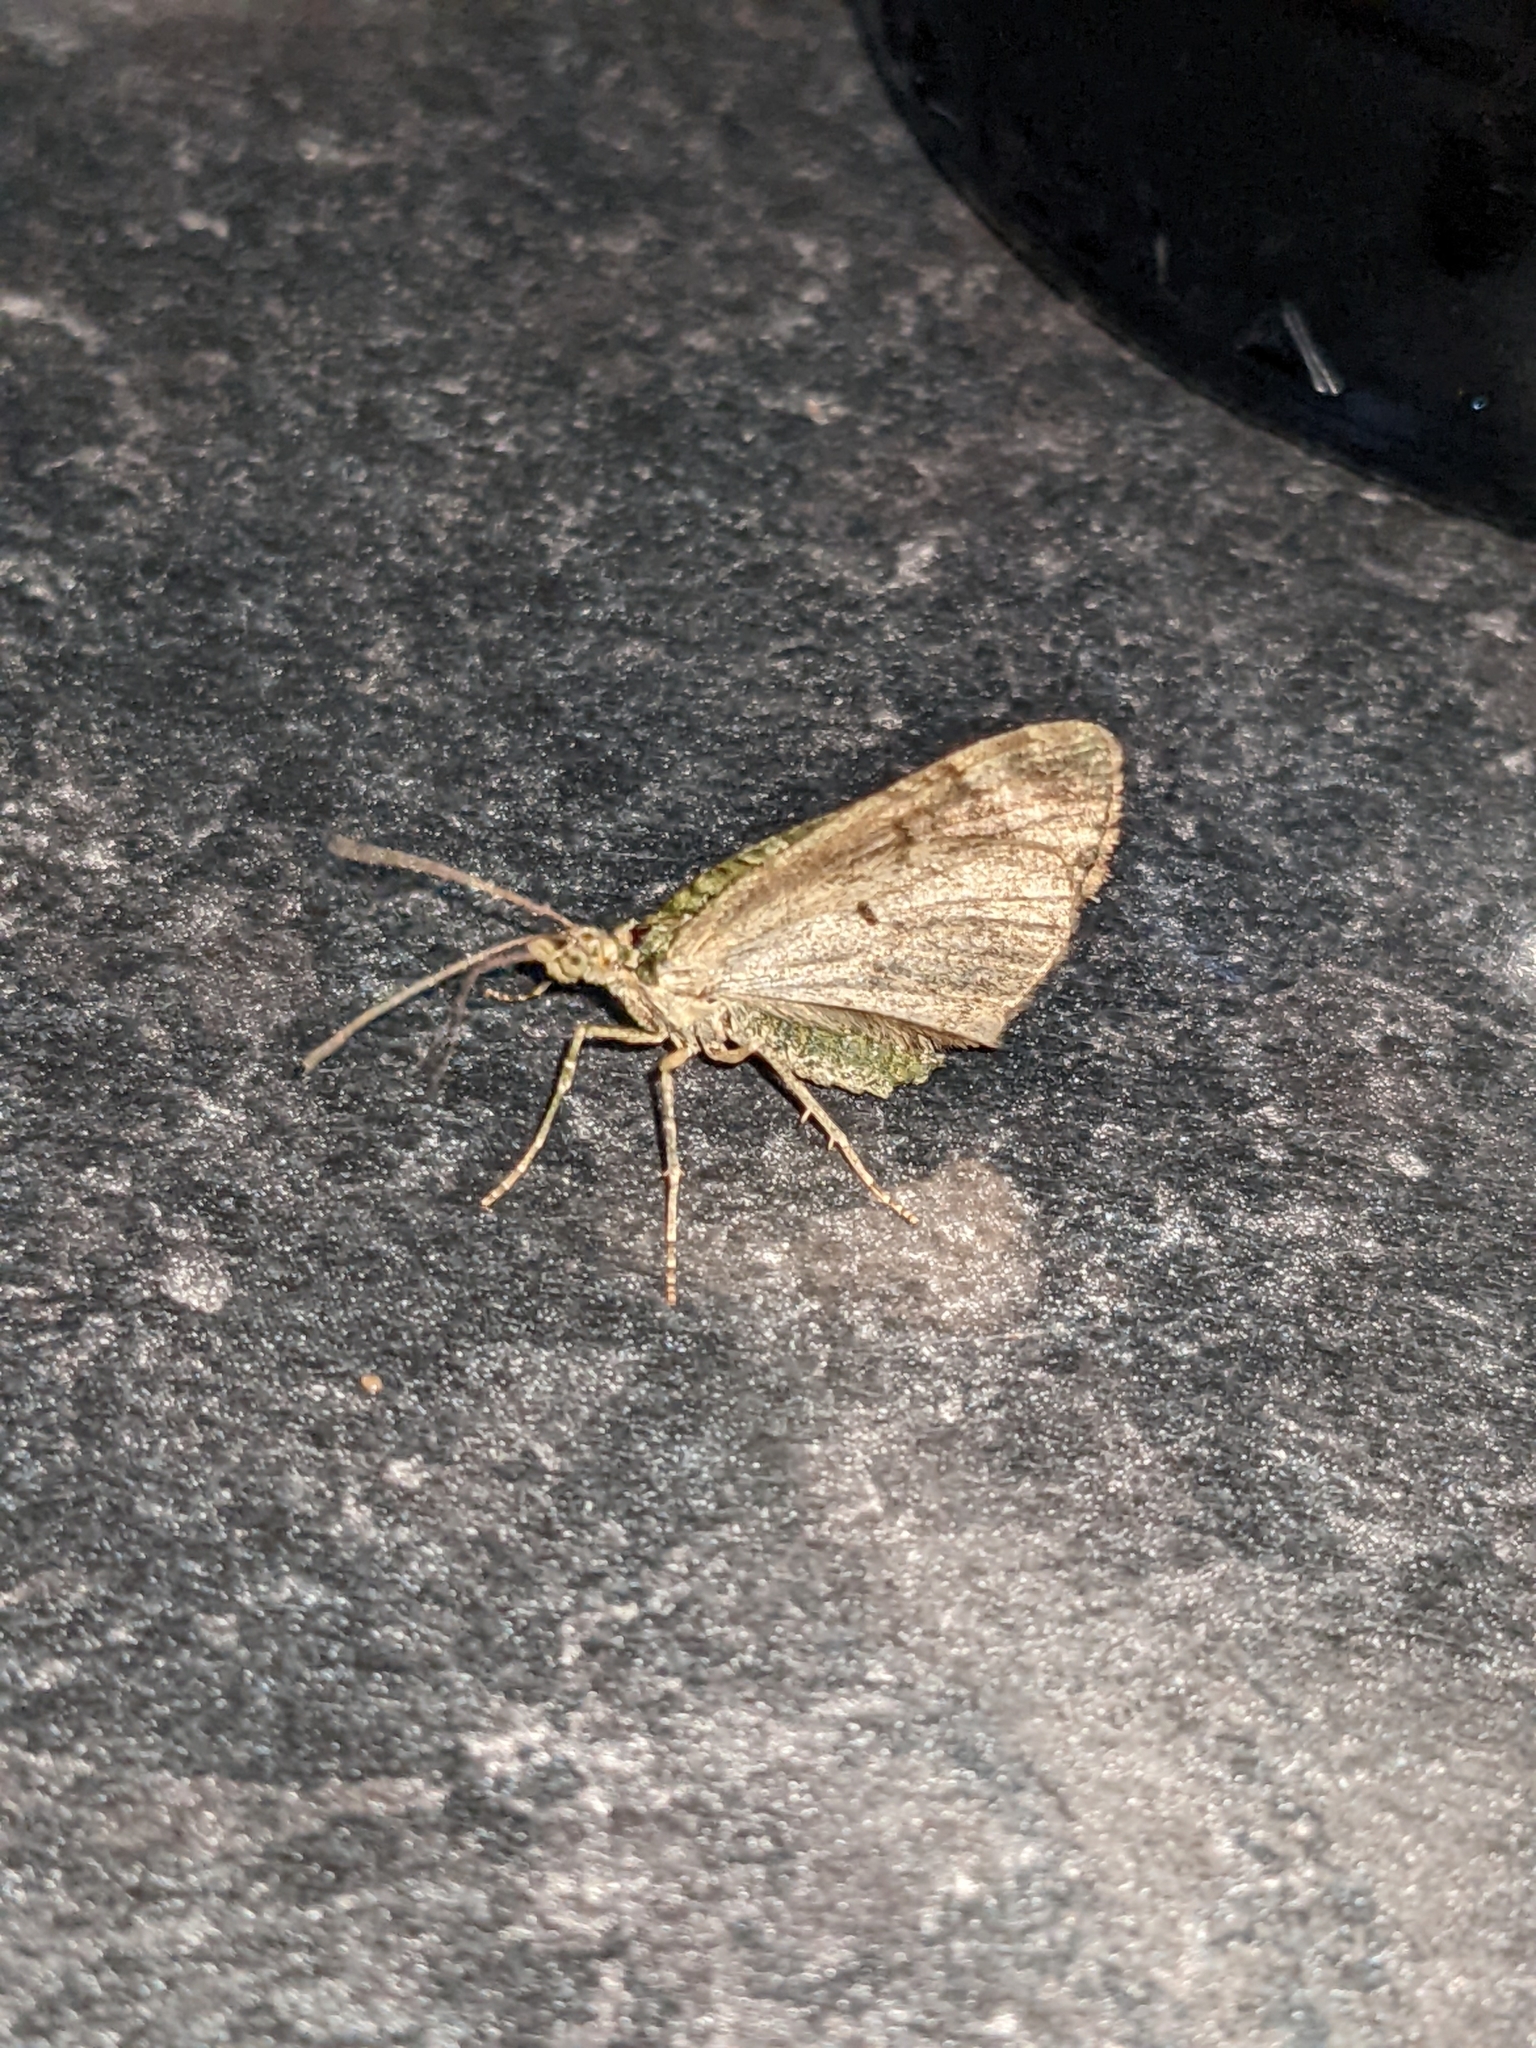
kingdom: Animalia
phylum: Arthropoda
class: Insecta
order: Lepidoptera
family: Geometridae
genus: Chloroclysta
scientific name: Chloroclysta siterata
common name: Red-green carpet
